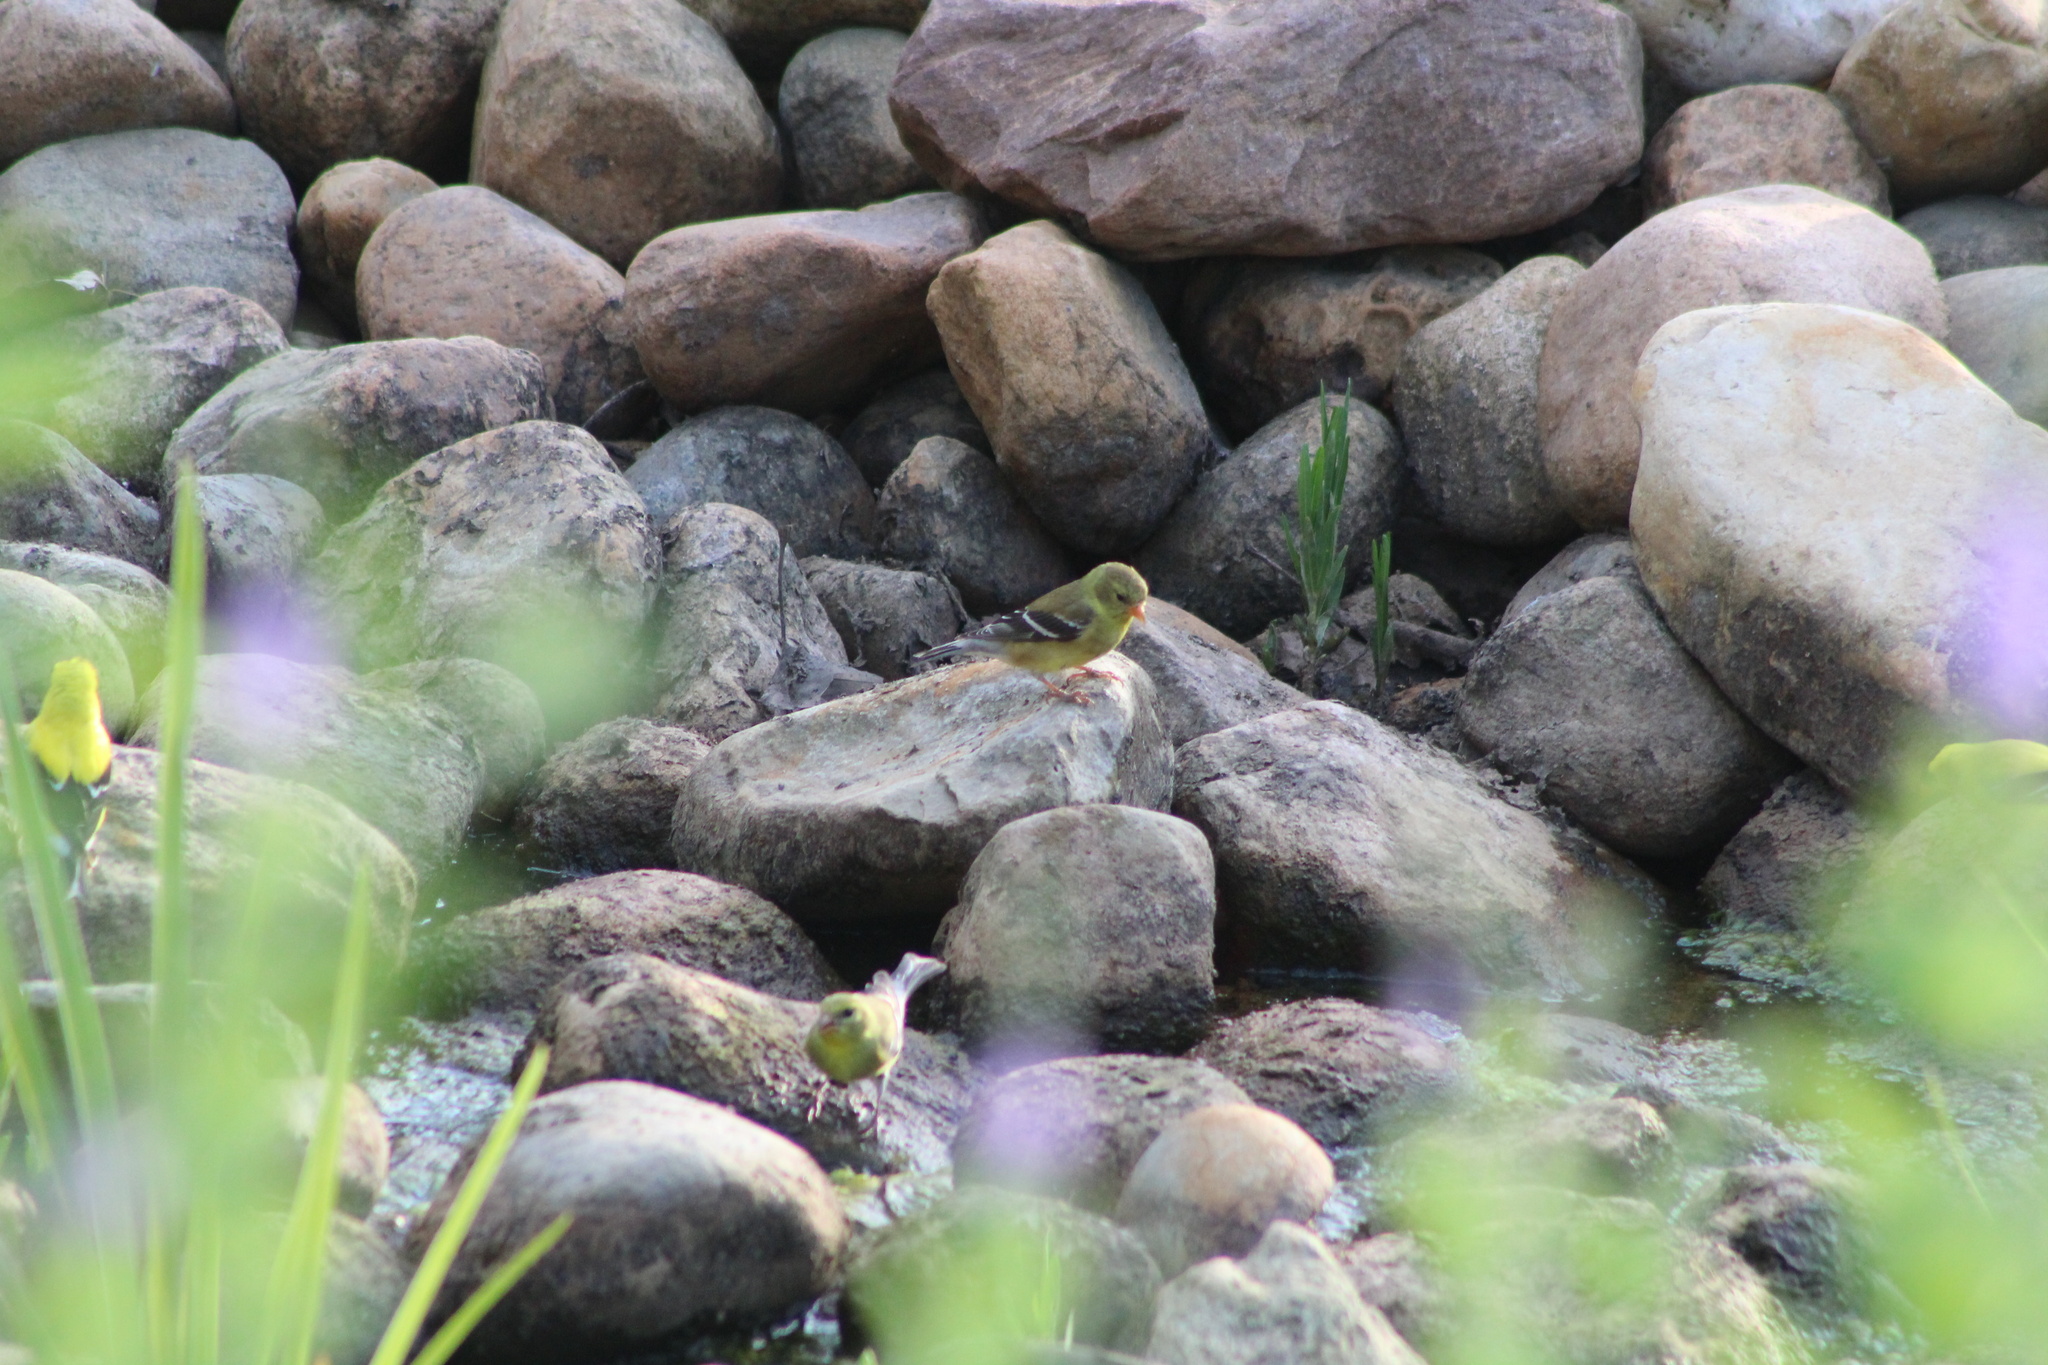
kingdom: Animalia
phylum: Chordata
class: Aves
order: Passeriformes
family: Fringillidae
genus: Spinus
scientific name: Spinus tristis
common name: American goldfinch
